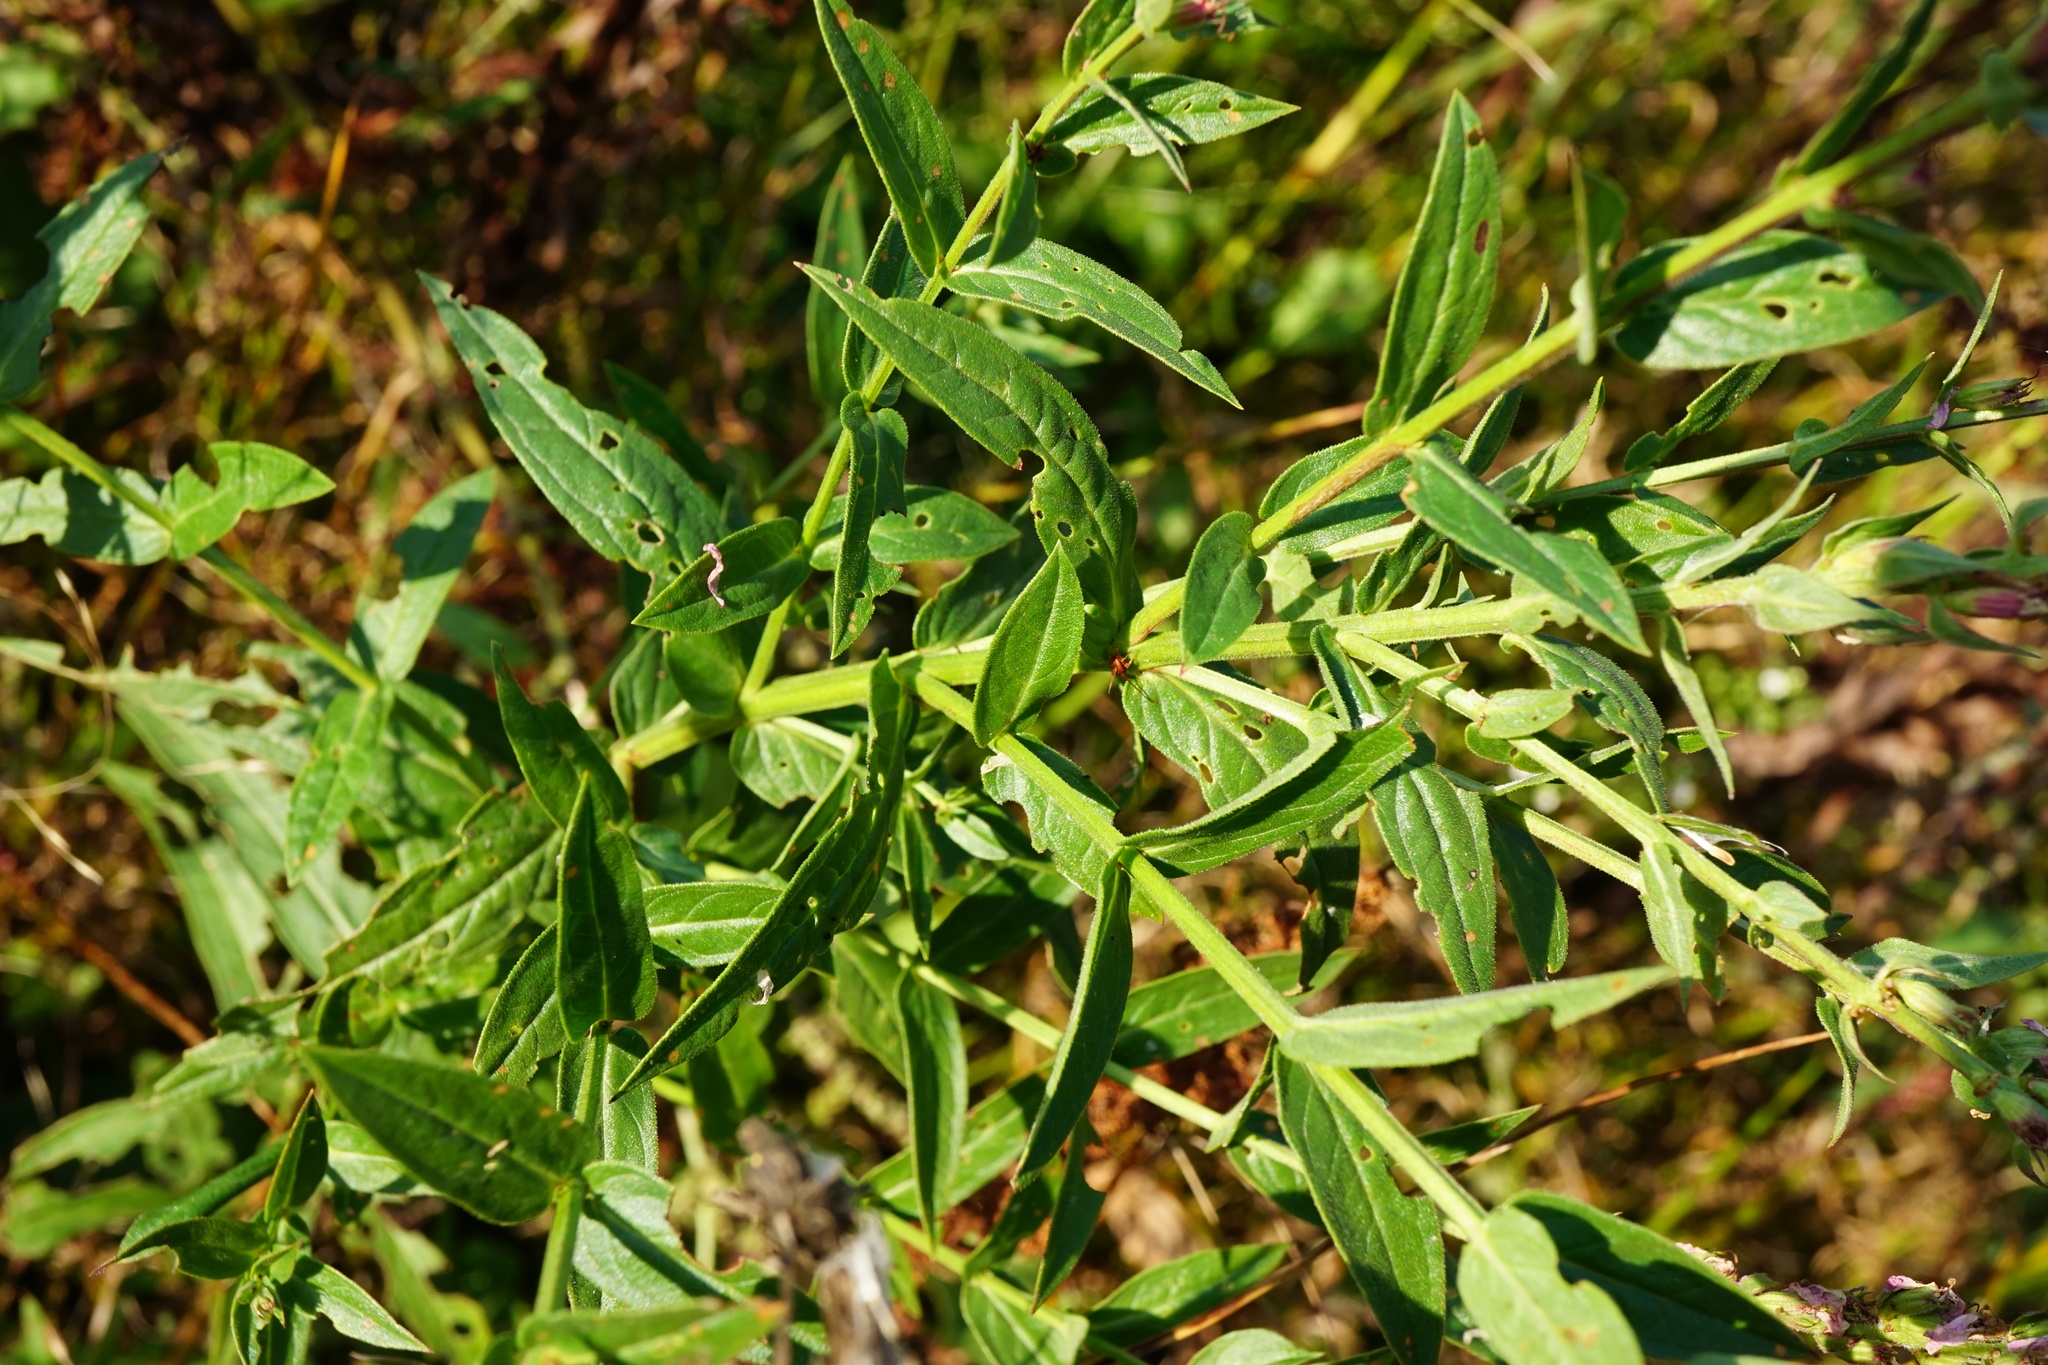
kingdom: Plantae
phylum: Tracheophyta
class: Magnoliopsida
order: Myrtales
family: Lythraceae
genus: Lythrum
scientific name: Lythrum salicaria
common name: Purple loosestrife
